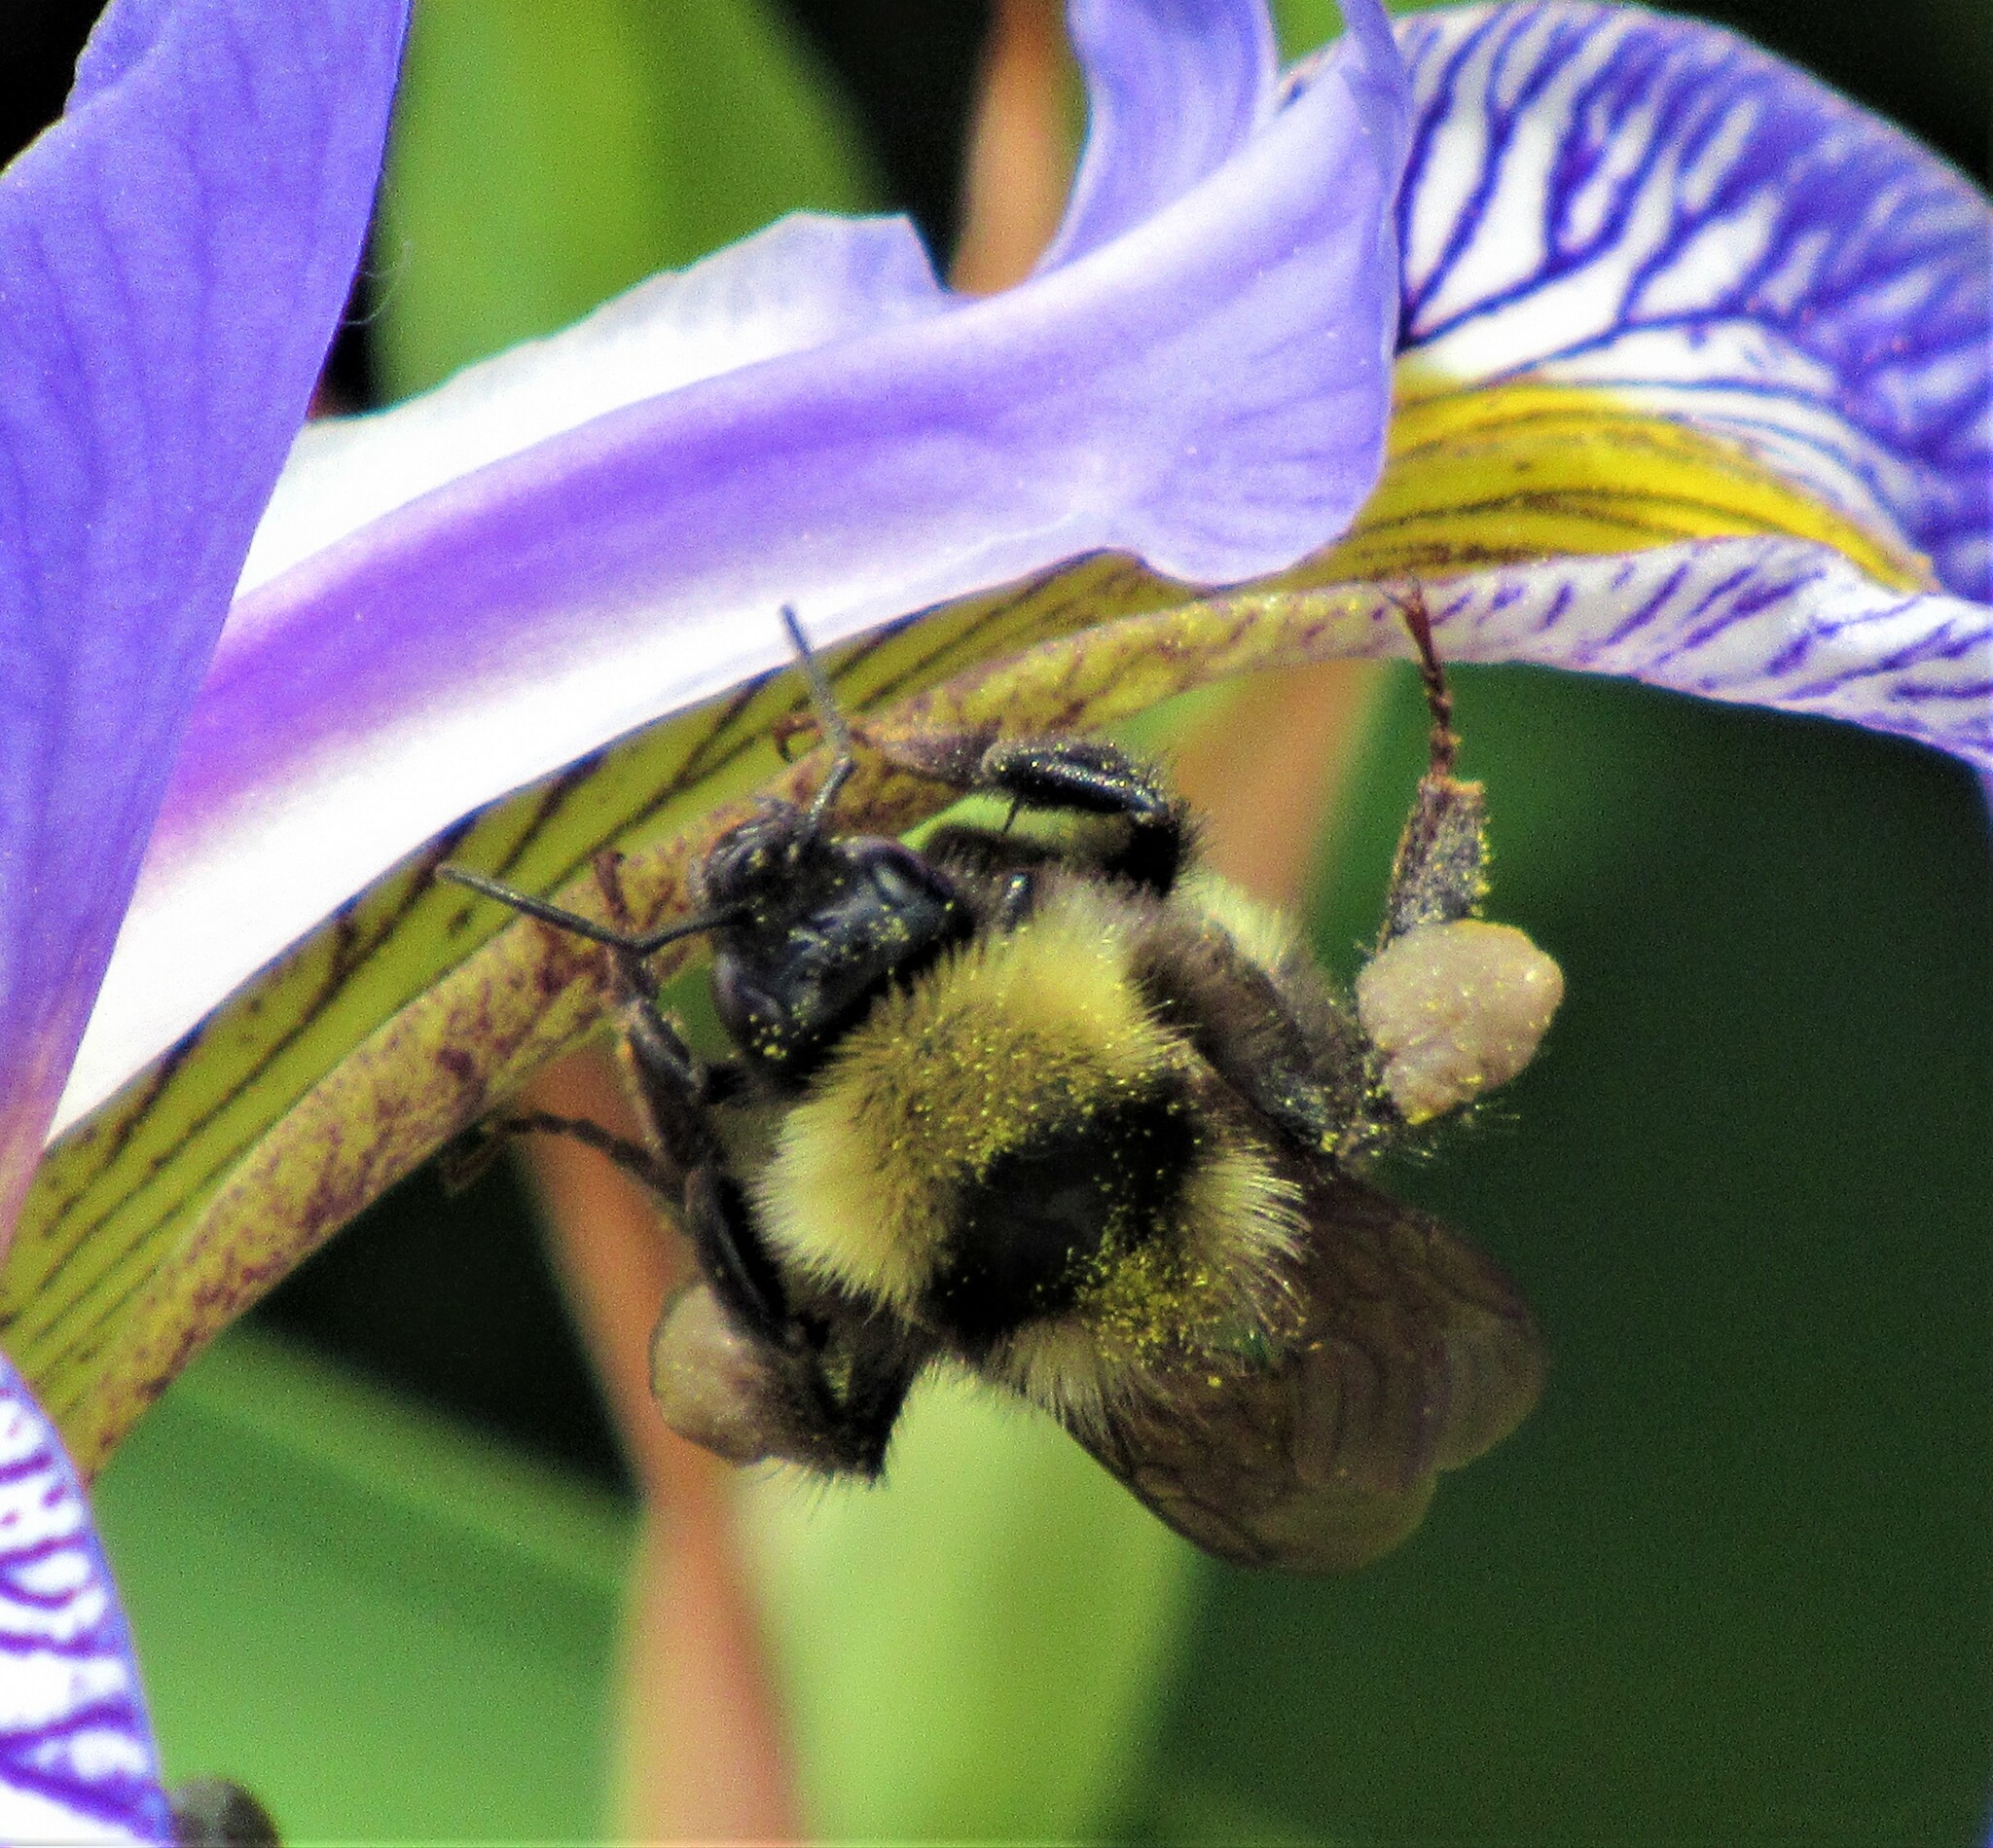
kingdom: Animalia
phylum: Arthropoda
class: Insecta
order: Hymenoptera
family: Apidae
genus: Bombus
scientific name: Bombus californicus
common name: California bumble bee
